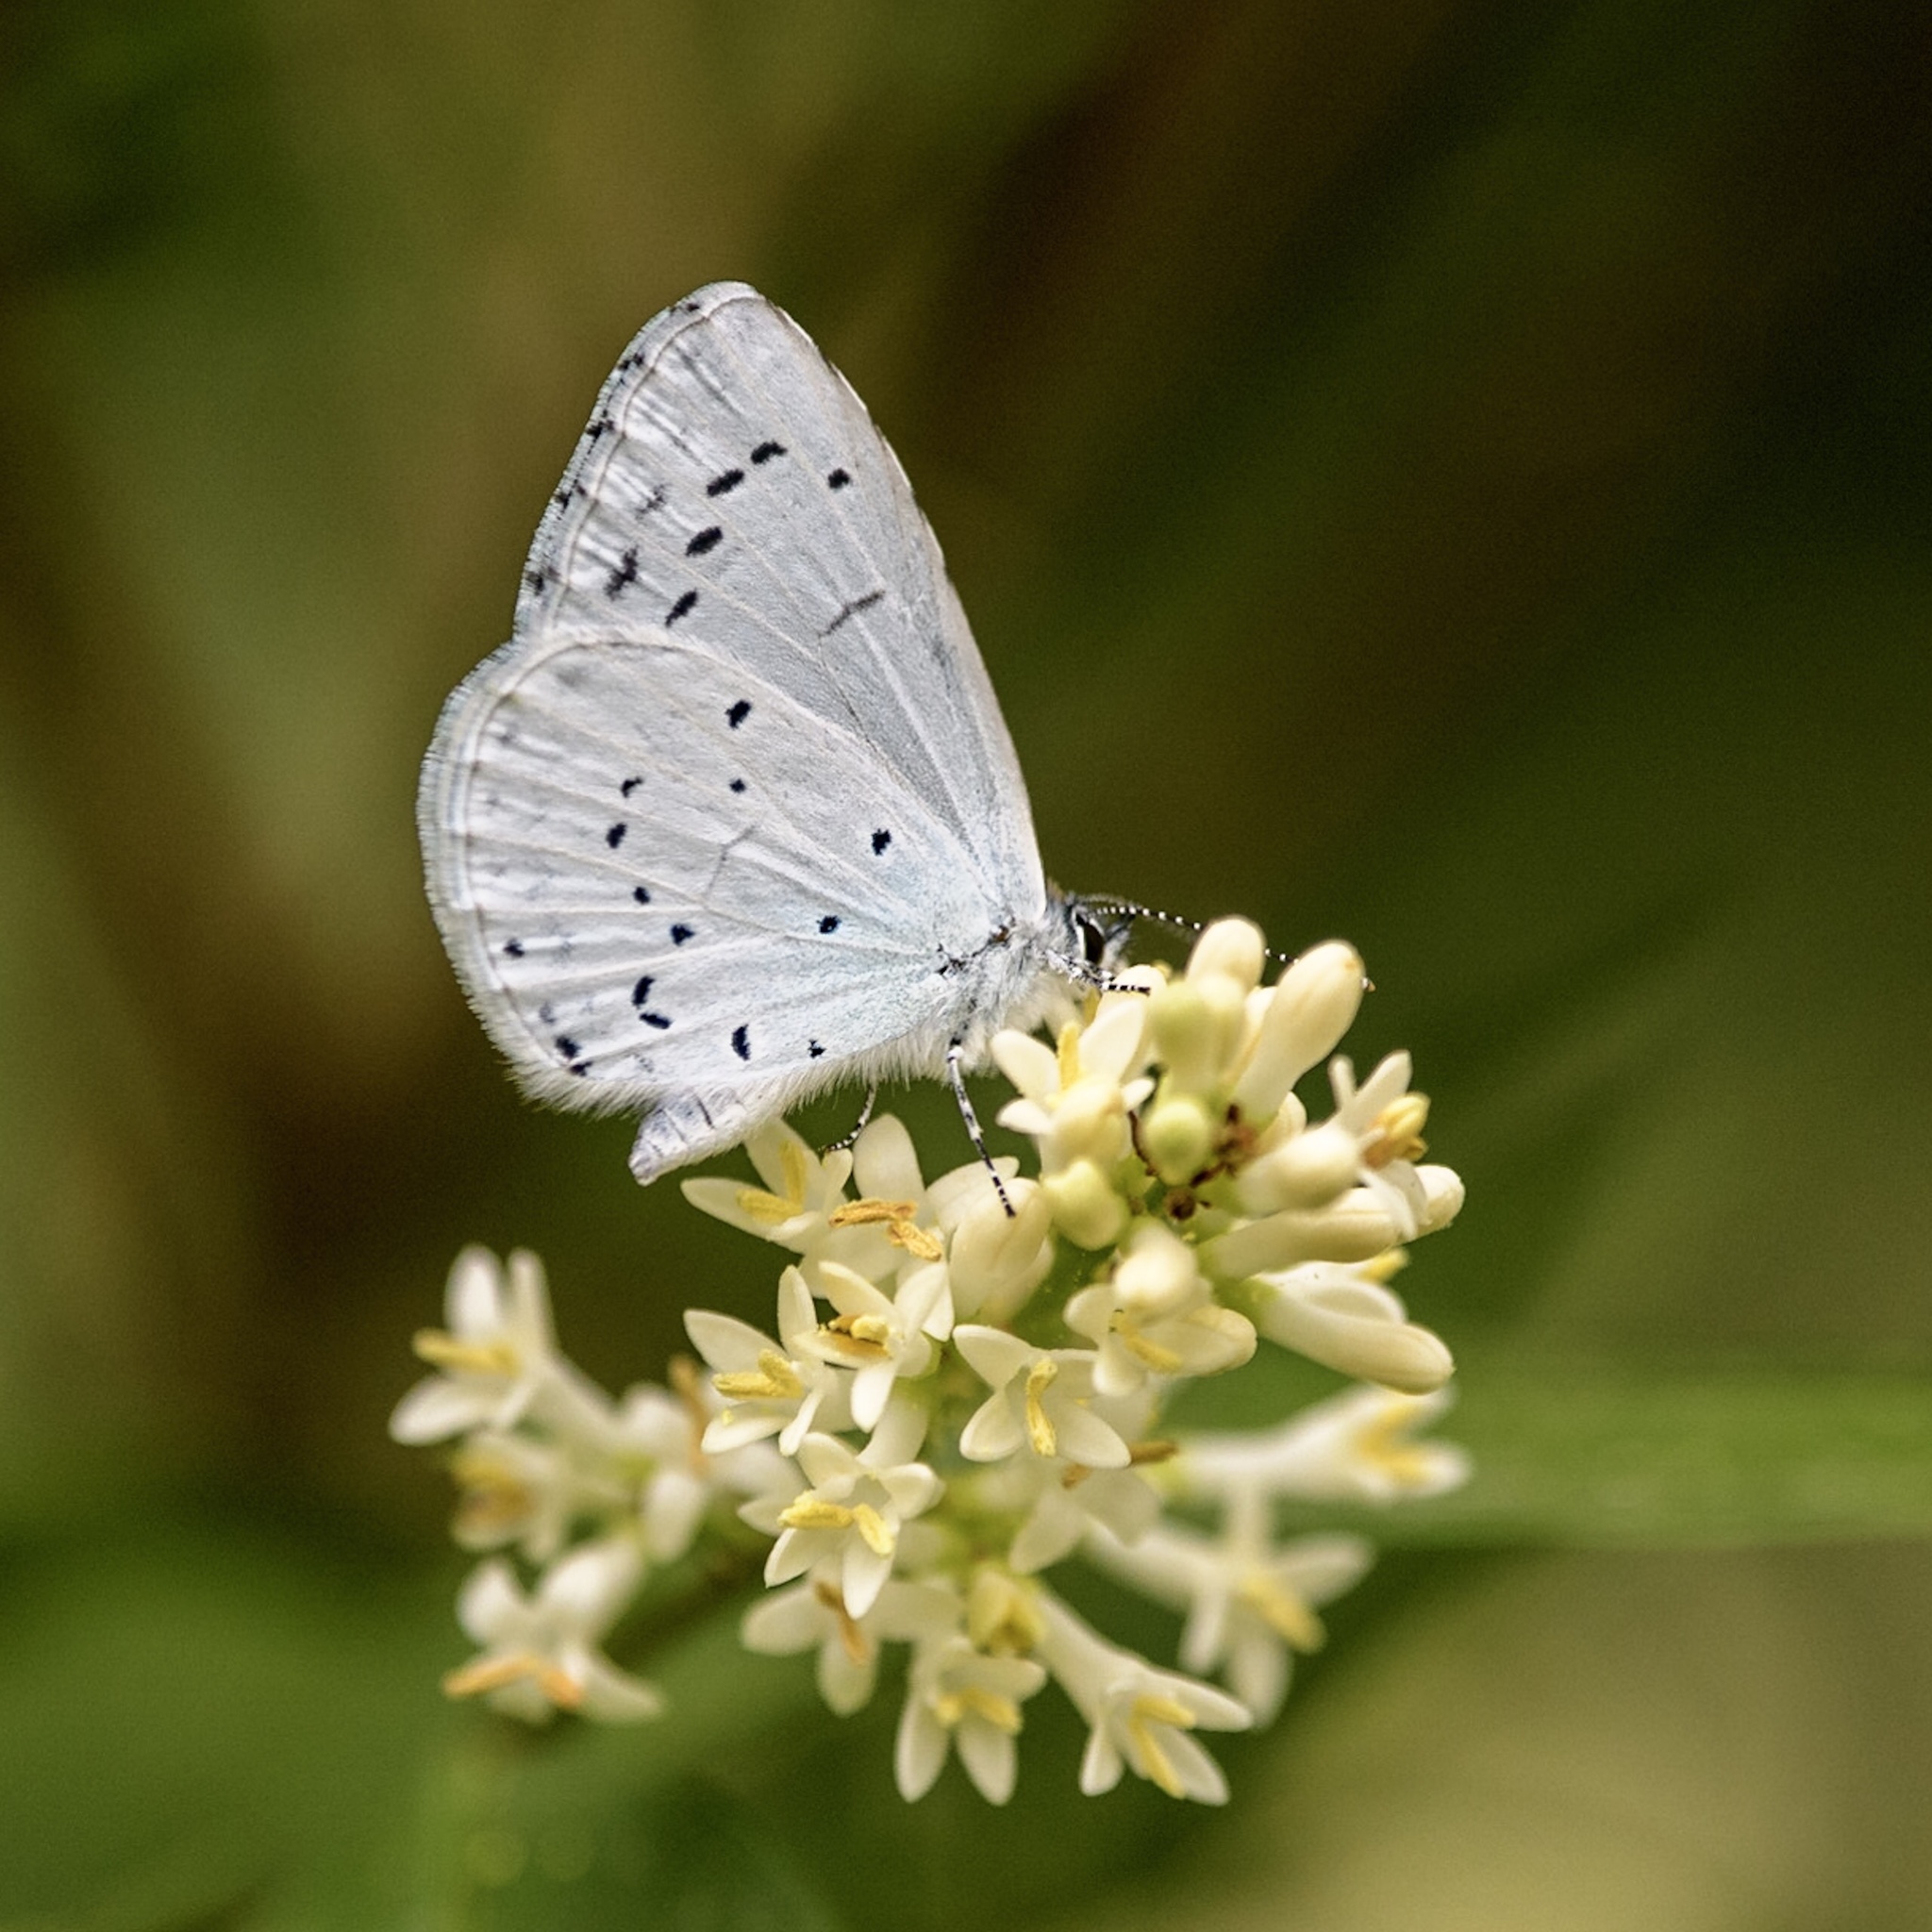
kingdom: Animalia
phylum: Arthropoda
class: Insecta
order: Lepidoptera
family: Lycaenidae
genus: Celastrina
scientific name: Celastrina argiolus
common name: Holly blue
